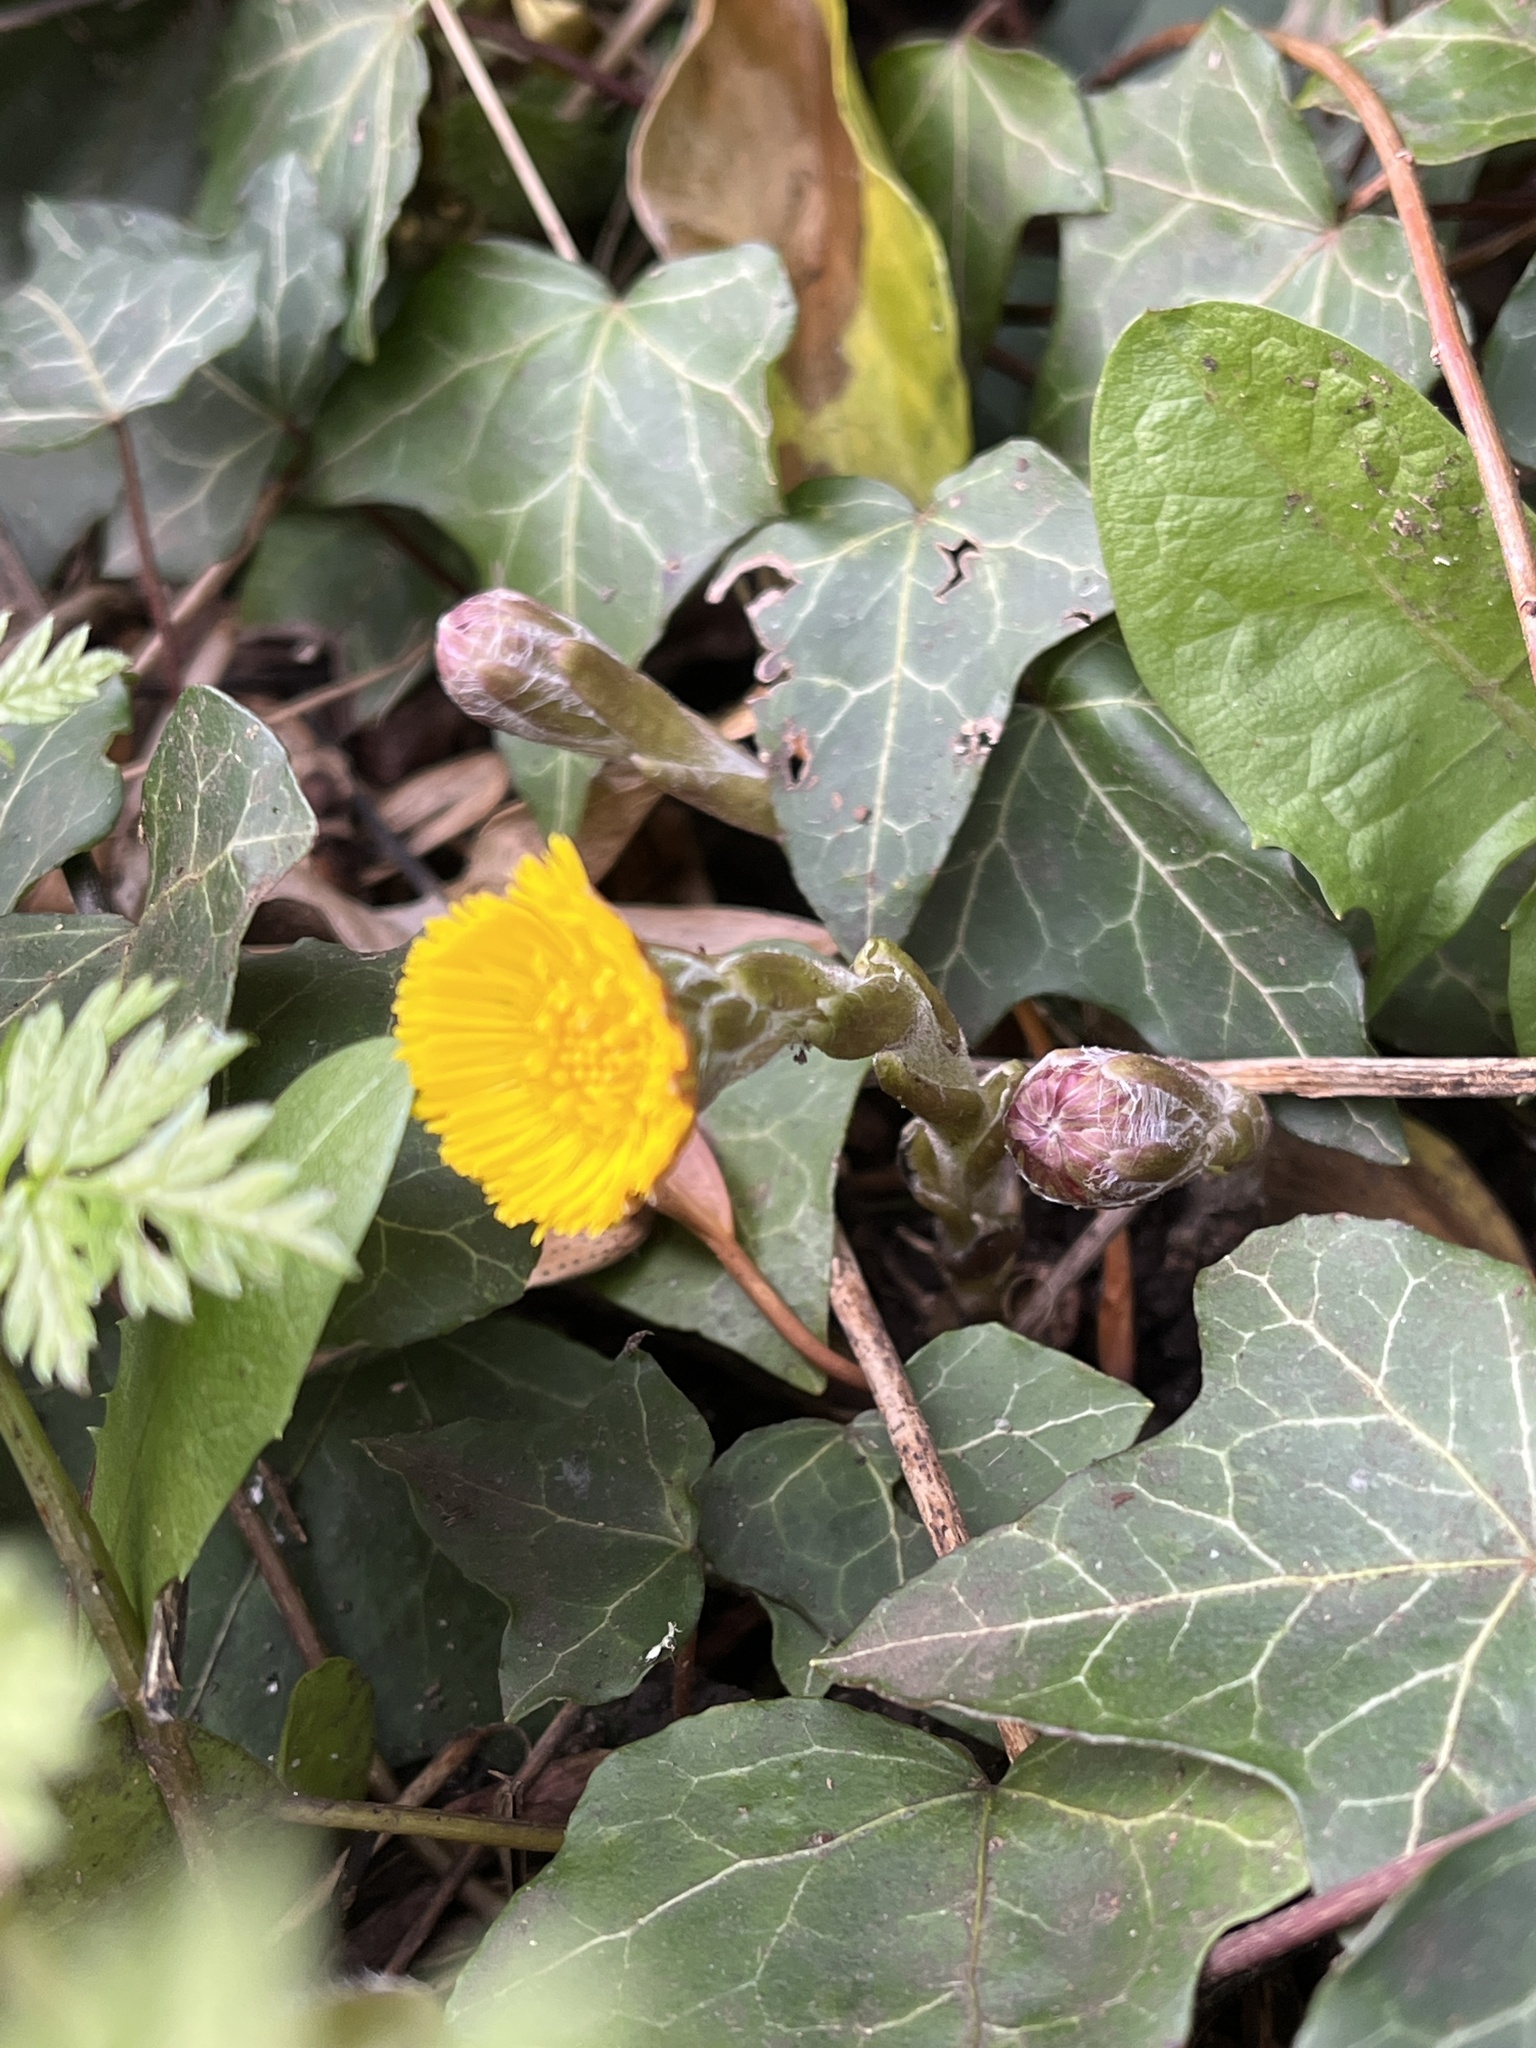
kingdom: Plantae
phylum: Tracheophyta
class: Magnoliopsida
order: Asterales
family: Asteraceae
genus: Tussilago
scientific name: Tussilago farfara
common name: Coltsfoot
